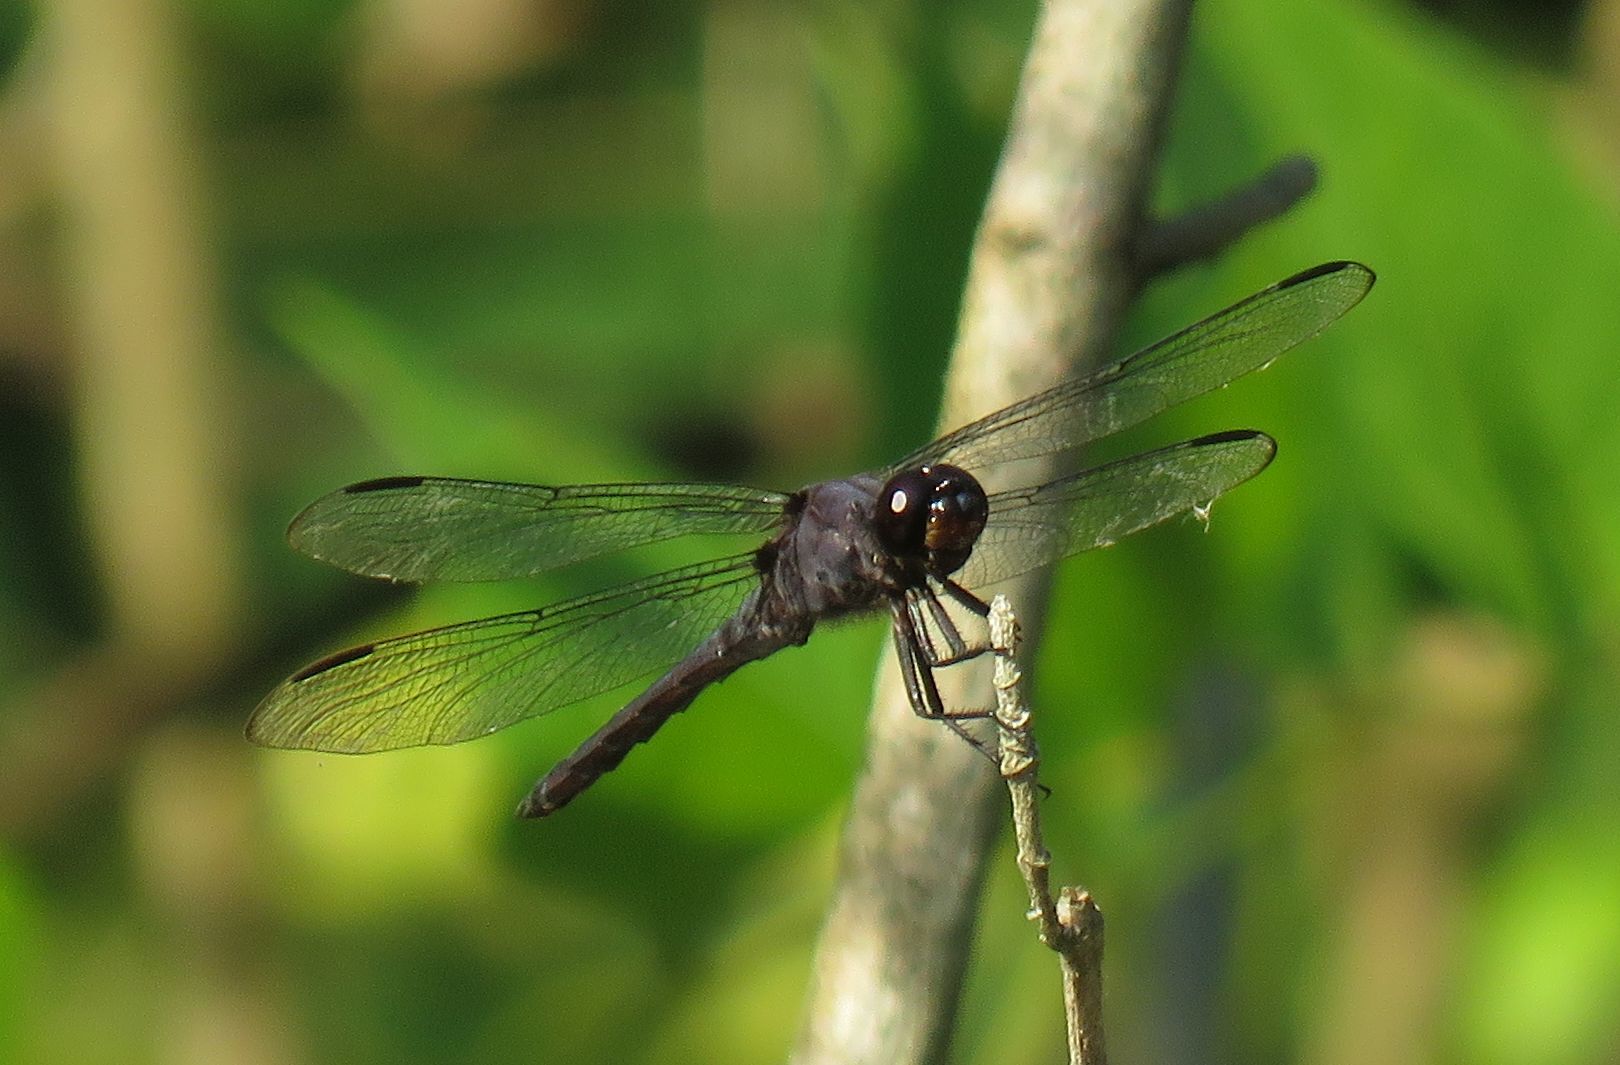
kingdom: Animalia
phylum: Arthropoda
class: Insecta
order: Odonata
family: Libellulidae
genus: Libellula
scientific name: Libellula incesta
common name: Slaty skimmer
